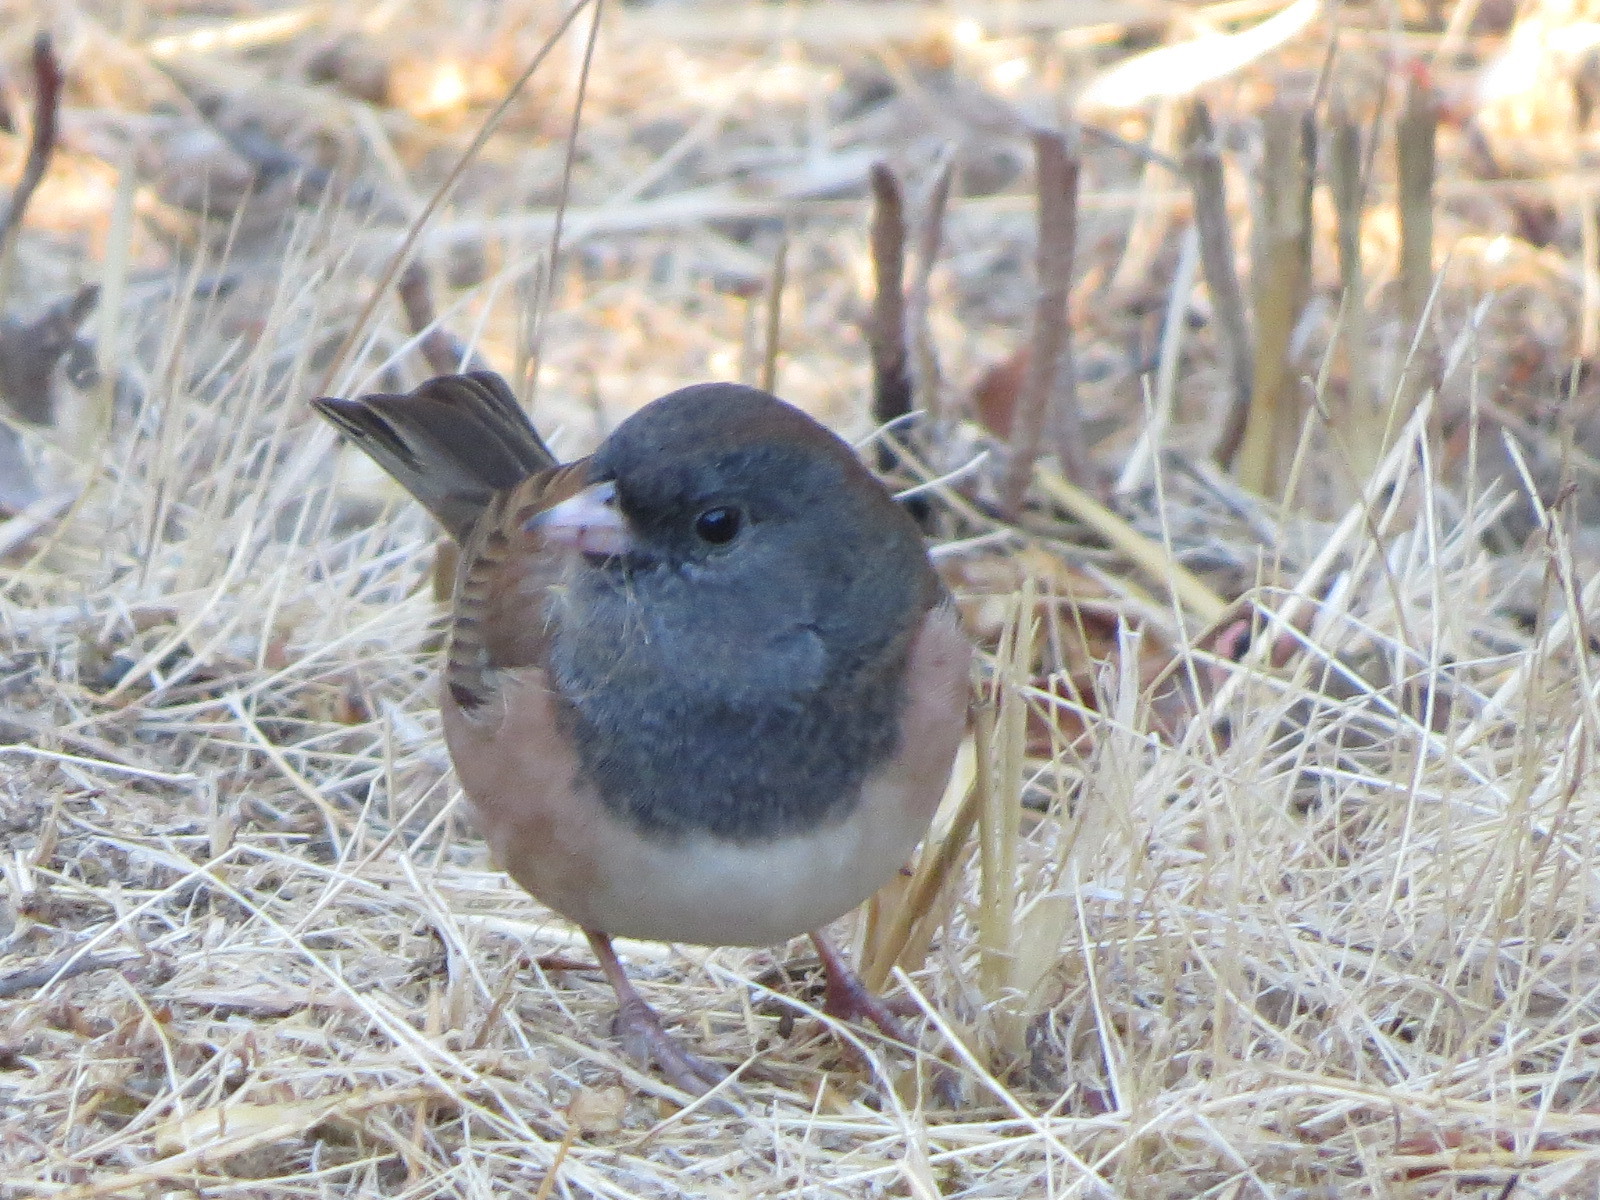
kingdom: Animalia
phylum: Chordata
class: Aves
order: Passeriformes
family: Passerellidae
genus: Junco
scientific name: Junco hyemalis
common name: Dark-eyed junco
